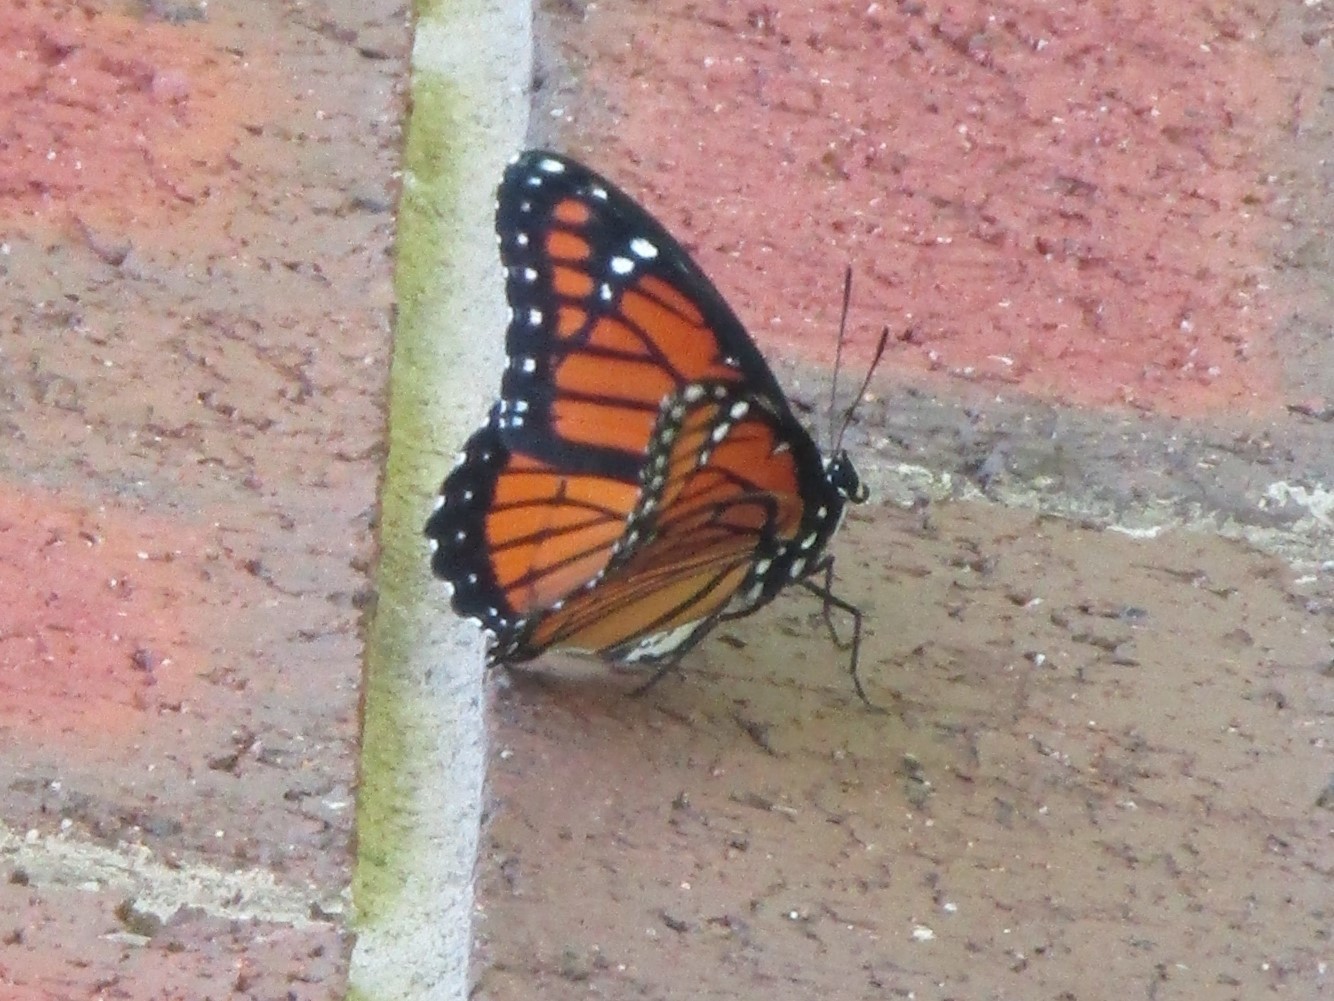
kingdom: Animalia
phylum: Arthropoda
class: Insecta
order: Lepidoptera
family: Nymphalidae
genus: Limenitis
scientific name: Limenitis archippus
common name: Viceroy
